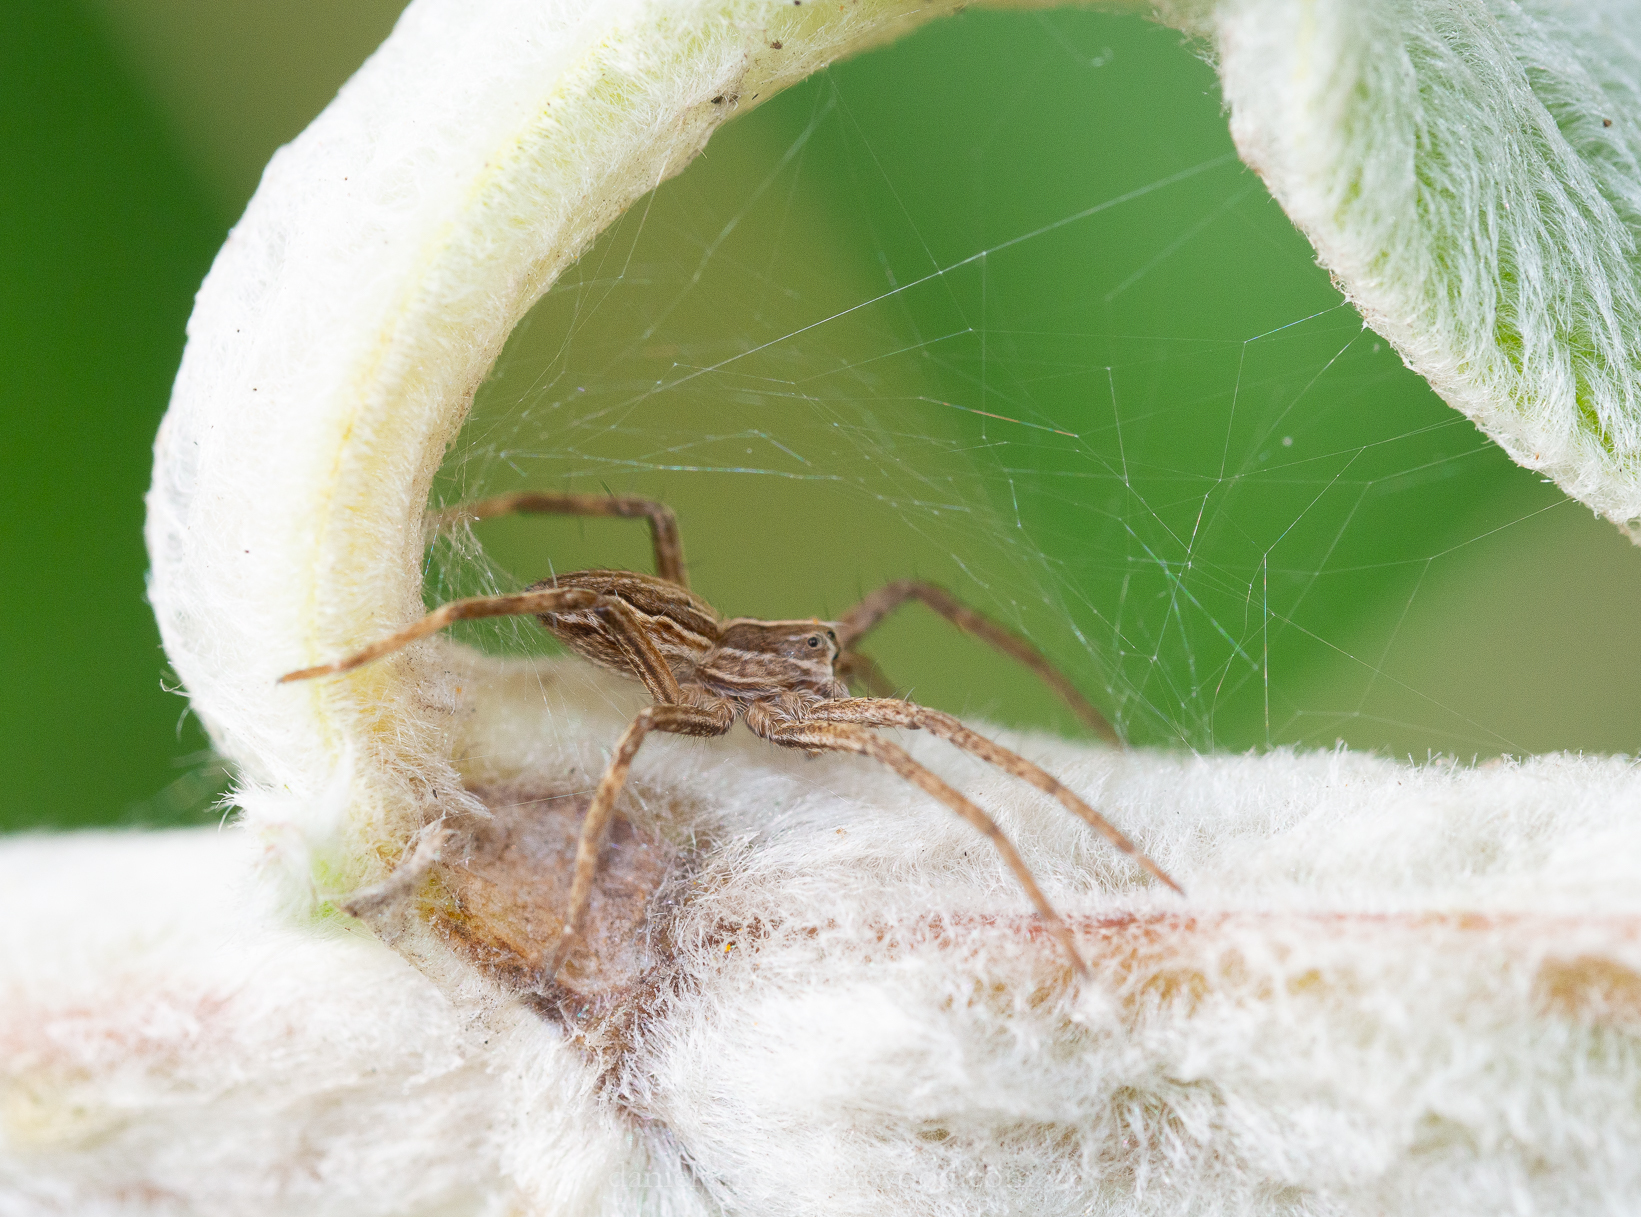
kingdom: Animalia
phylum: Arthropoda
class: Arachnida
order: Araneae
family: Pisauridae
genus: Pisaura
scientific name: Pisaura mirabilis
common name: Tent spider
